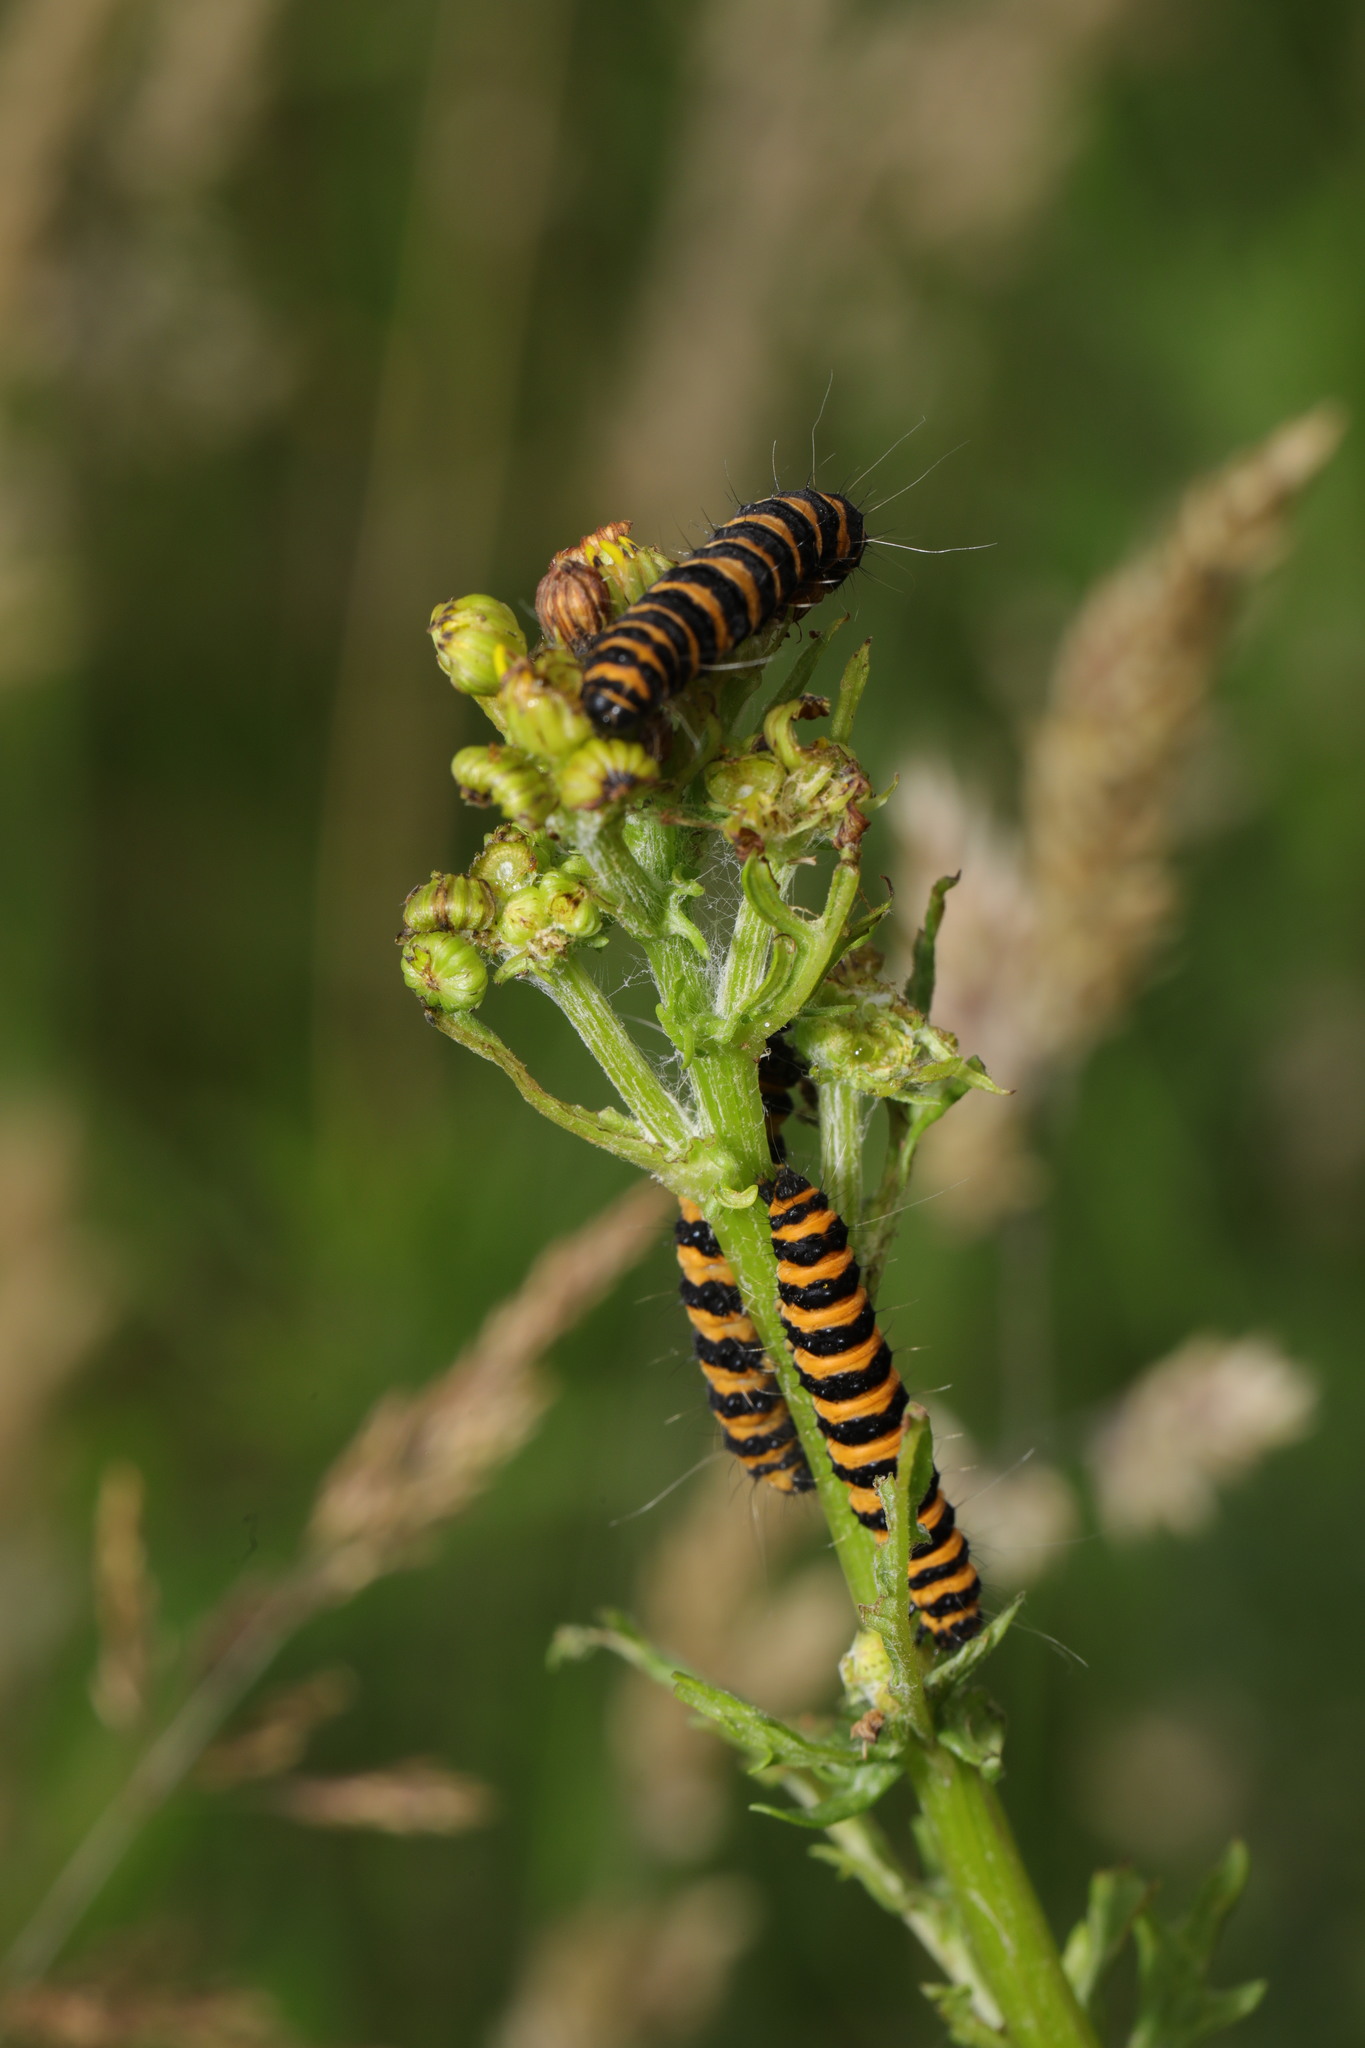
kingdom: Animalia
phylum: Arthropoda
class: Insecta
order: Lepidoptera
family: Erebidae
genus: Tyria
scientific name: Tyria jacobaeae
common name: Cinnabar
